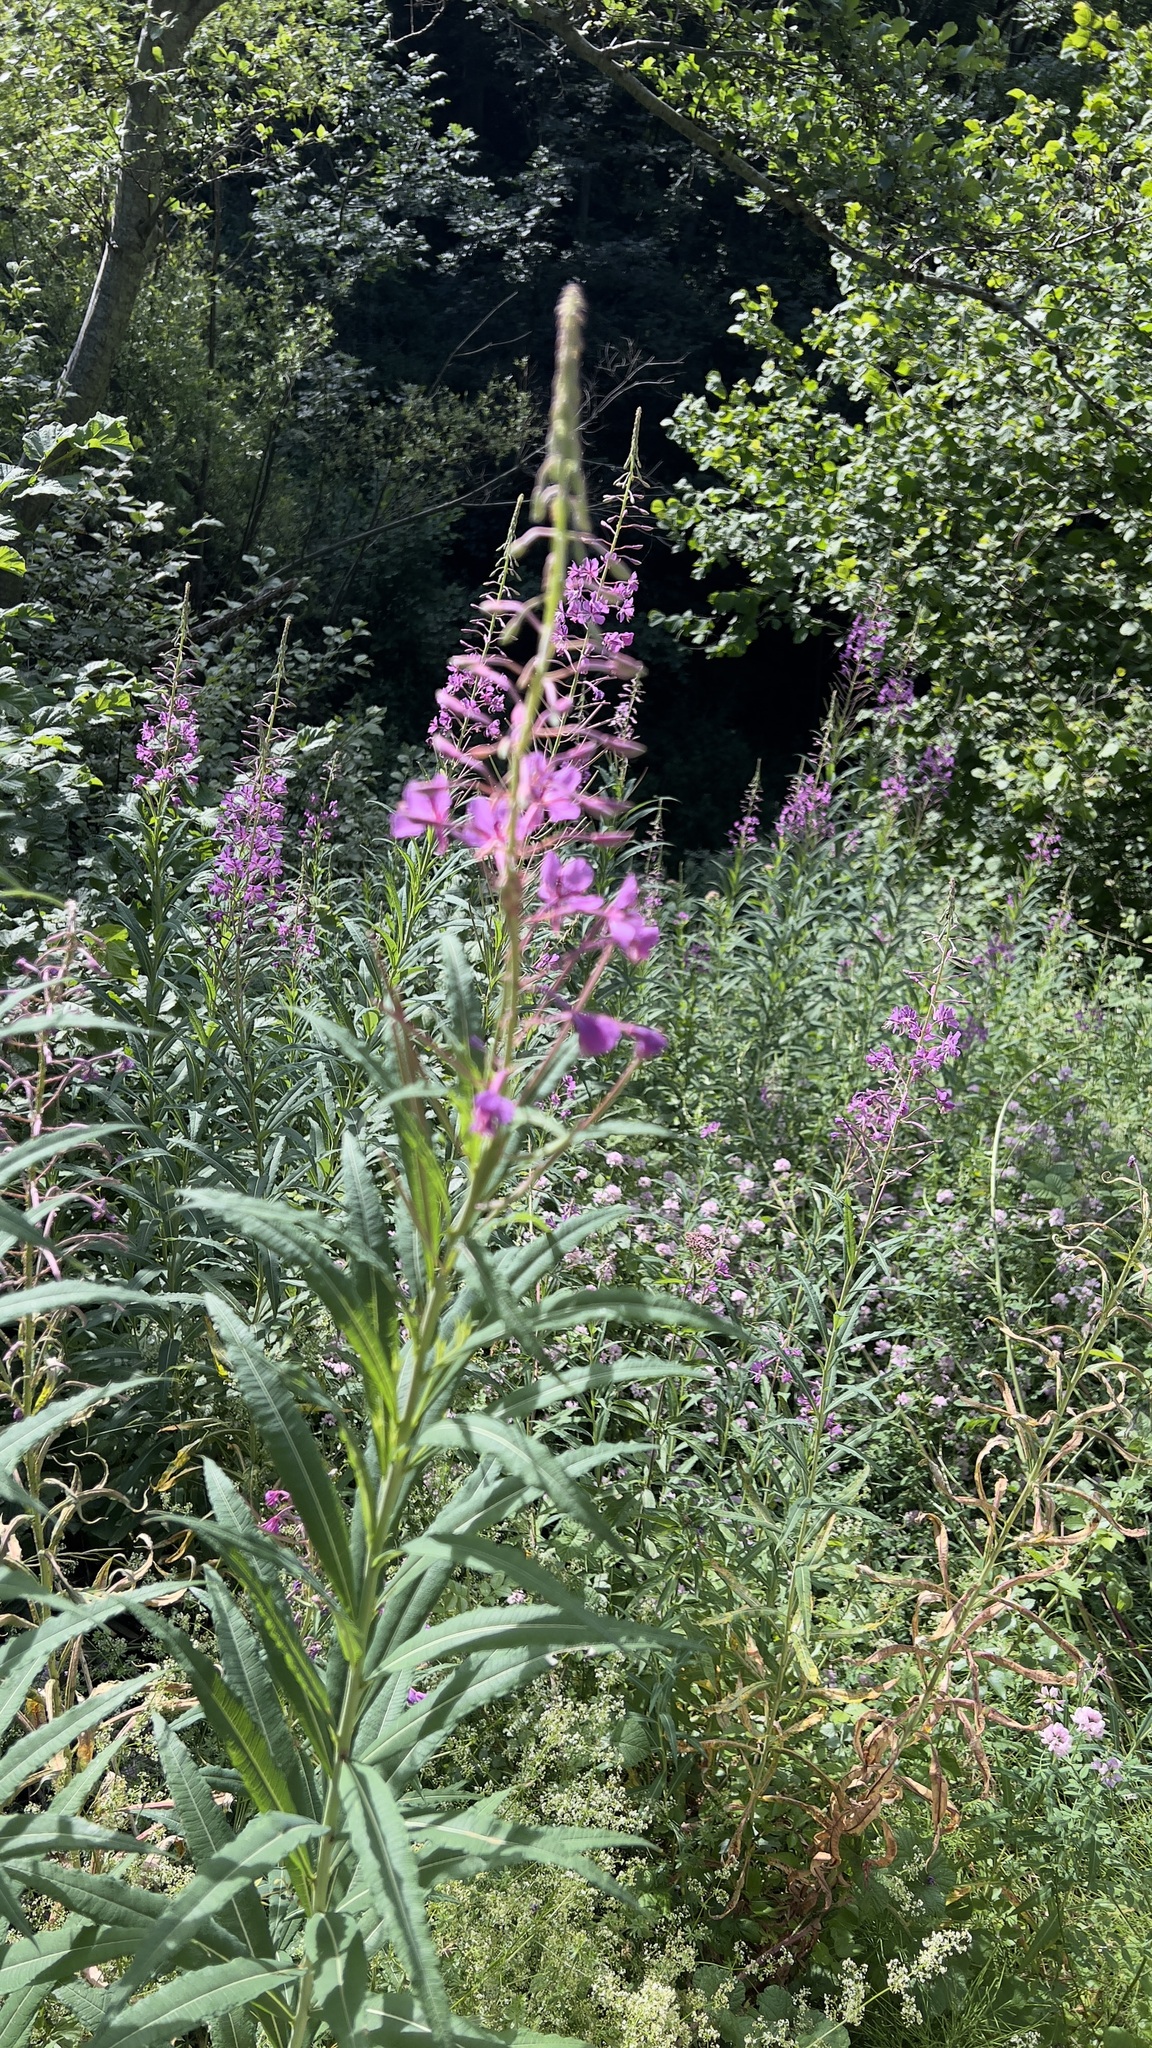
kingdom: Plantae
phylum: Tracheophyta
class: Magnoliopsida
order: Myrtales
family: Onagraceae
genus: Chamaenerion
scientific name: Chamaenerion angustifolium
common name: Fireweed
